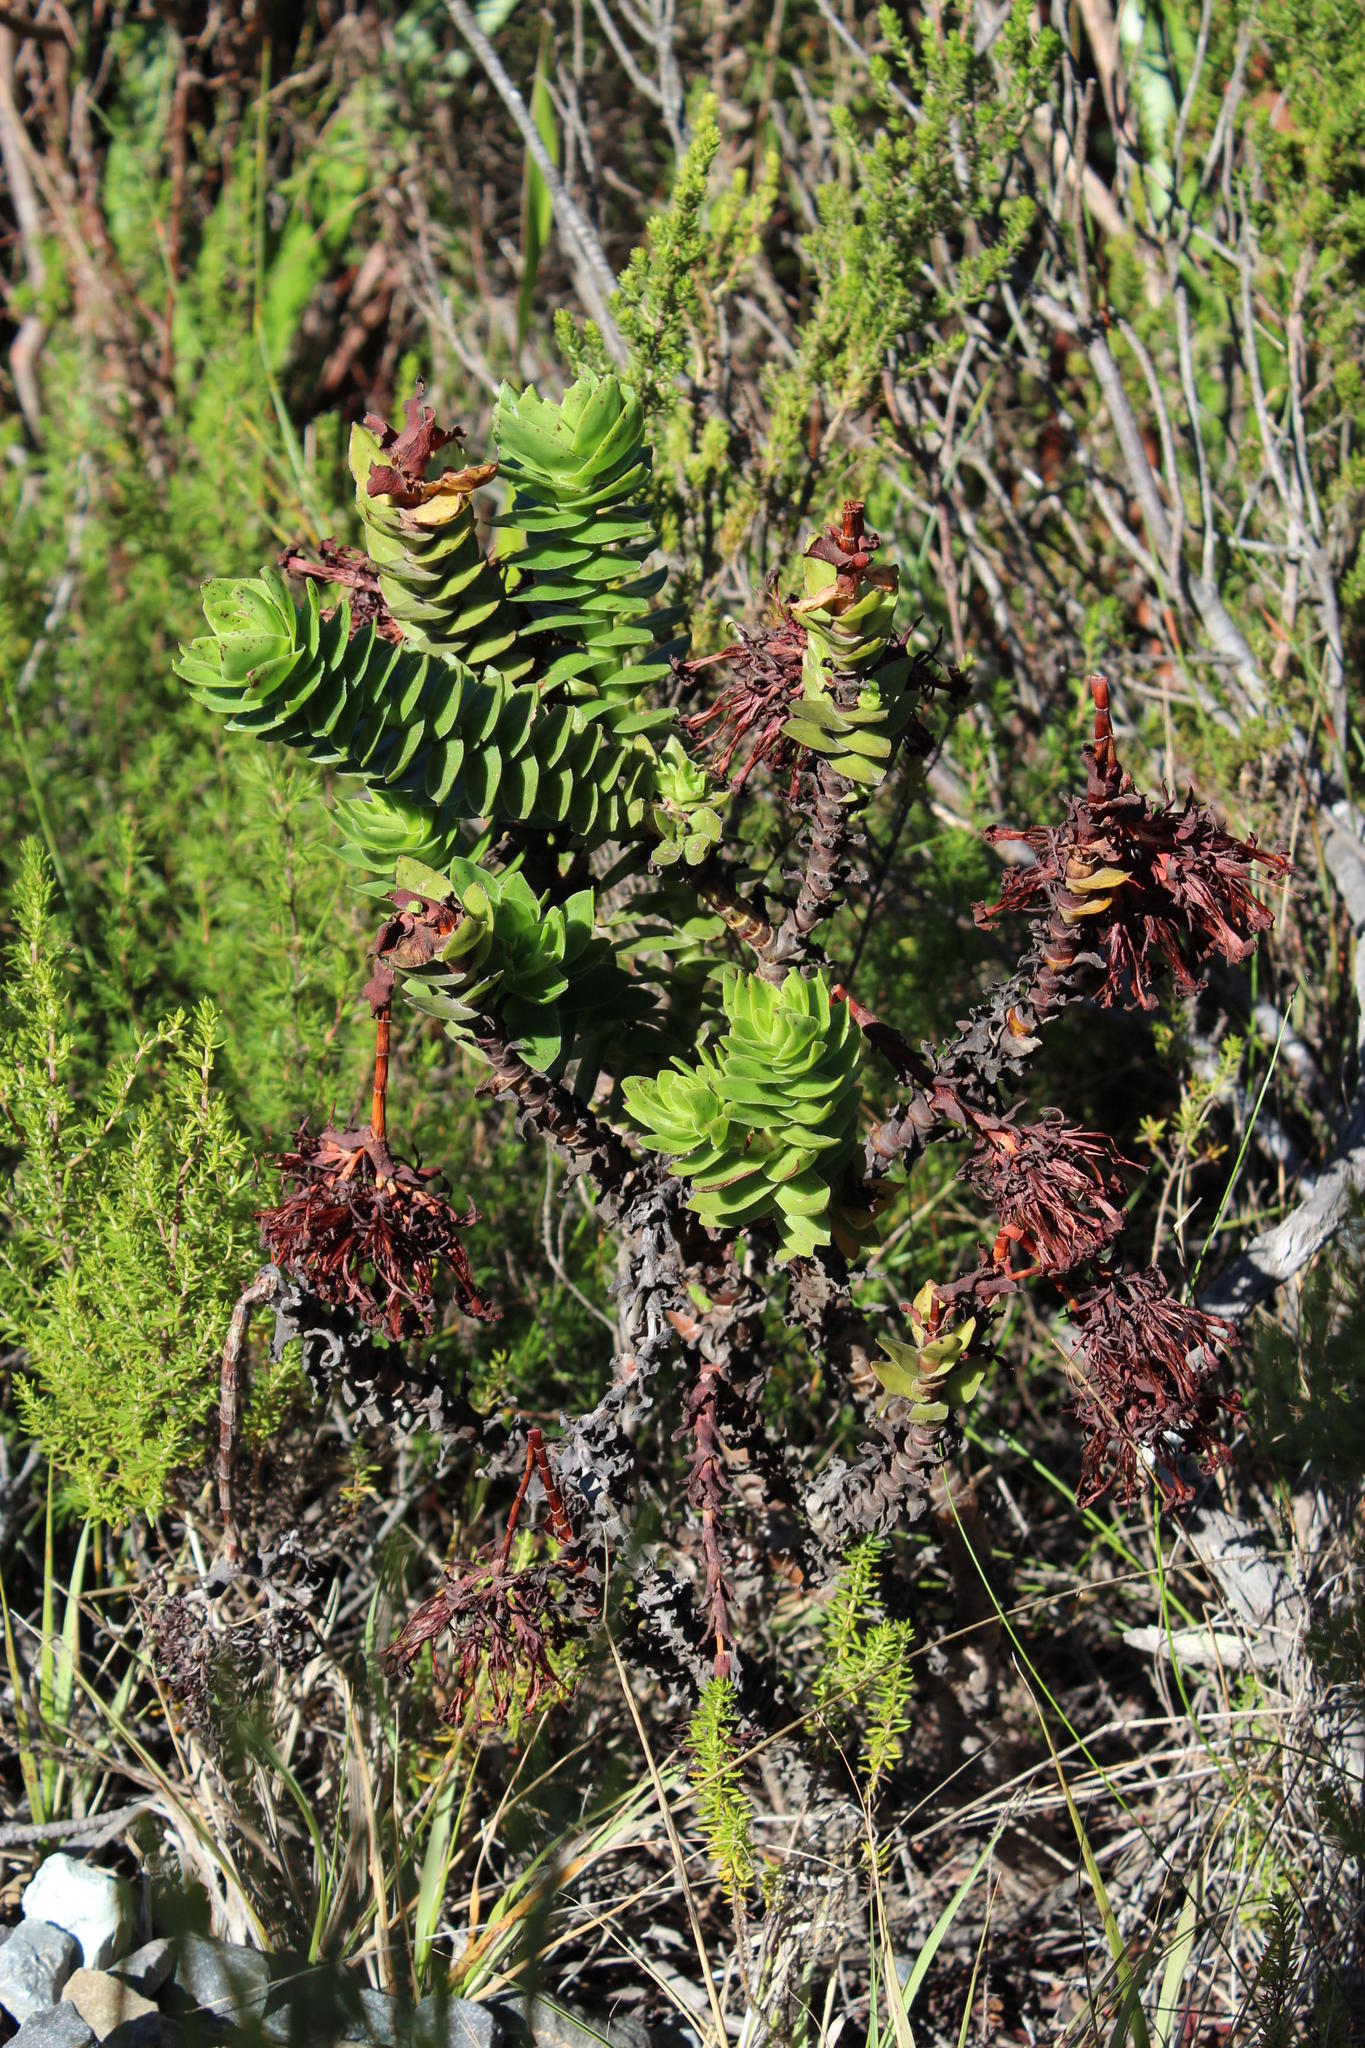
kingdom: Plantae
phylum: Tracheophyta
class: Magnoliopsida
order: Saxifragales
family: Crassulaceae
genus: Crassula
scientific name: Crassula coccinea
